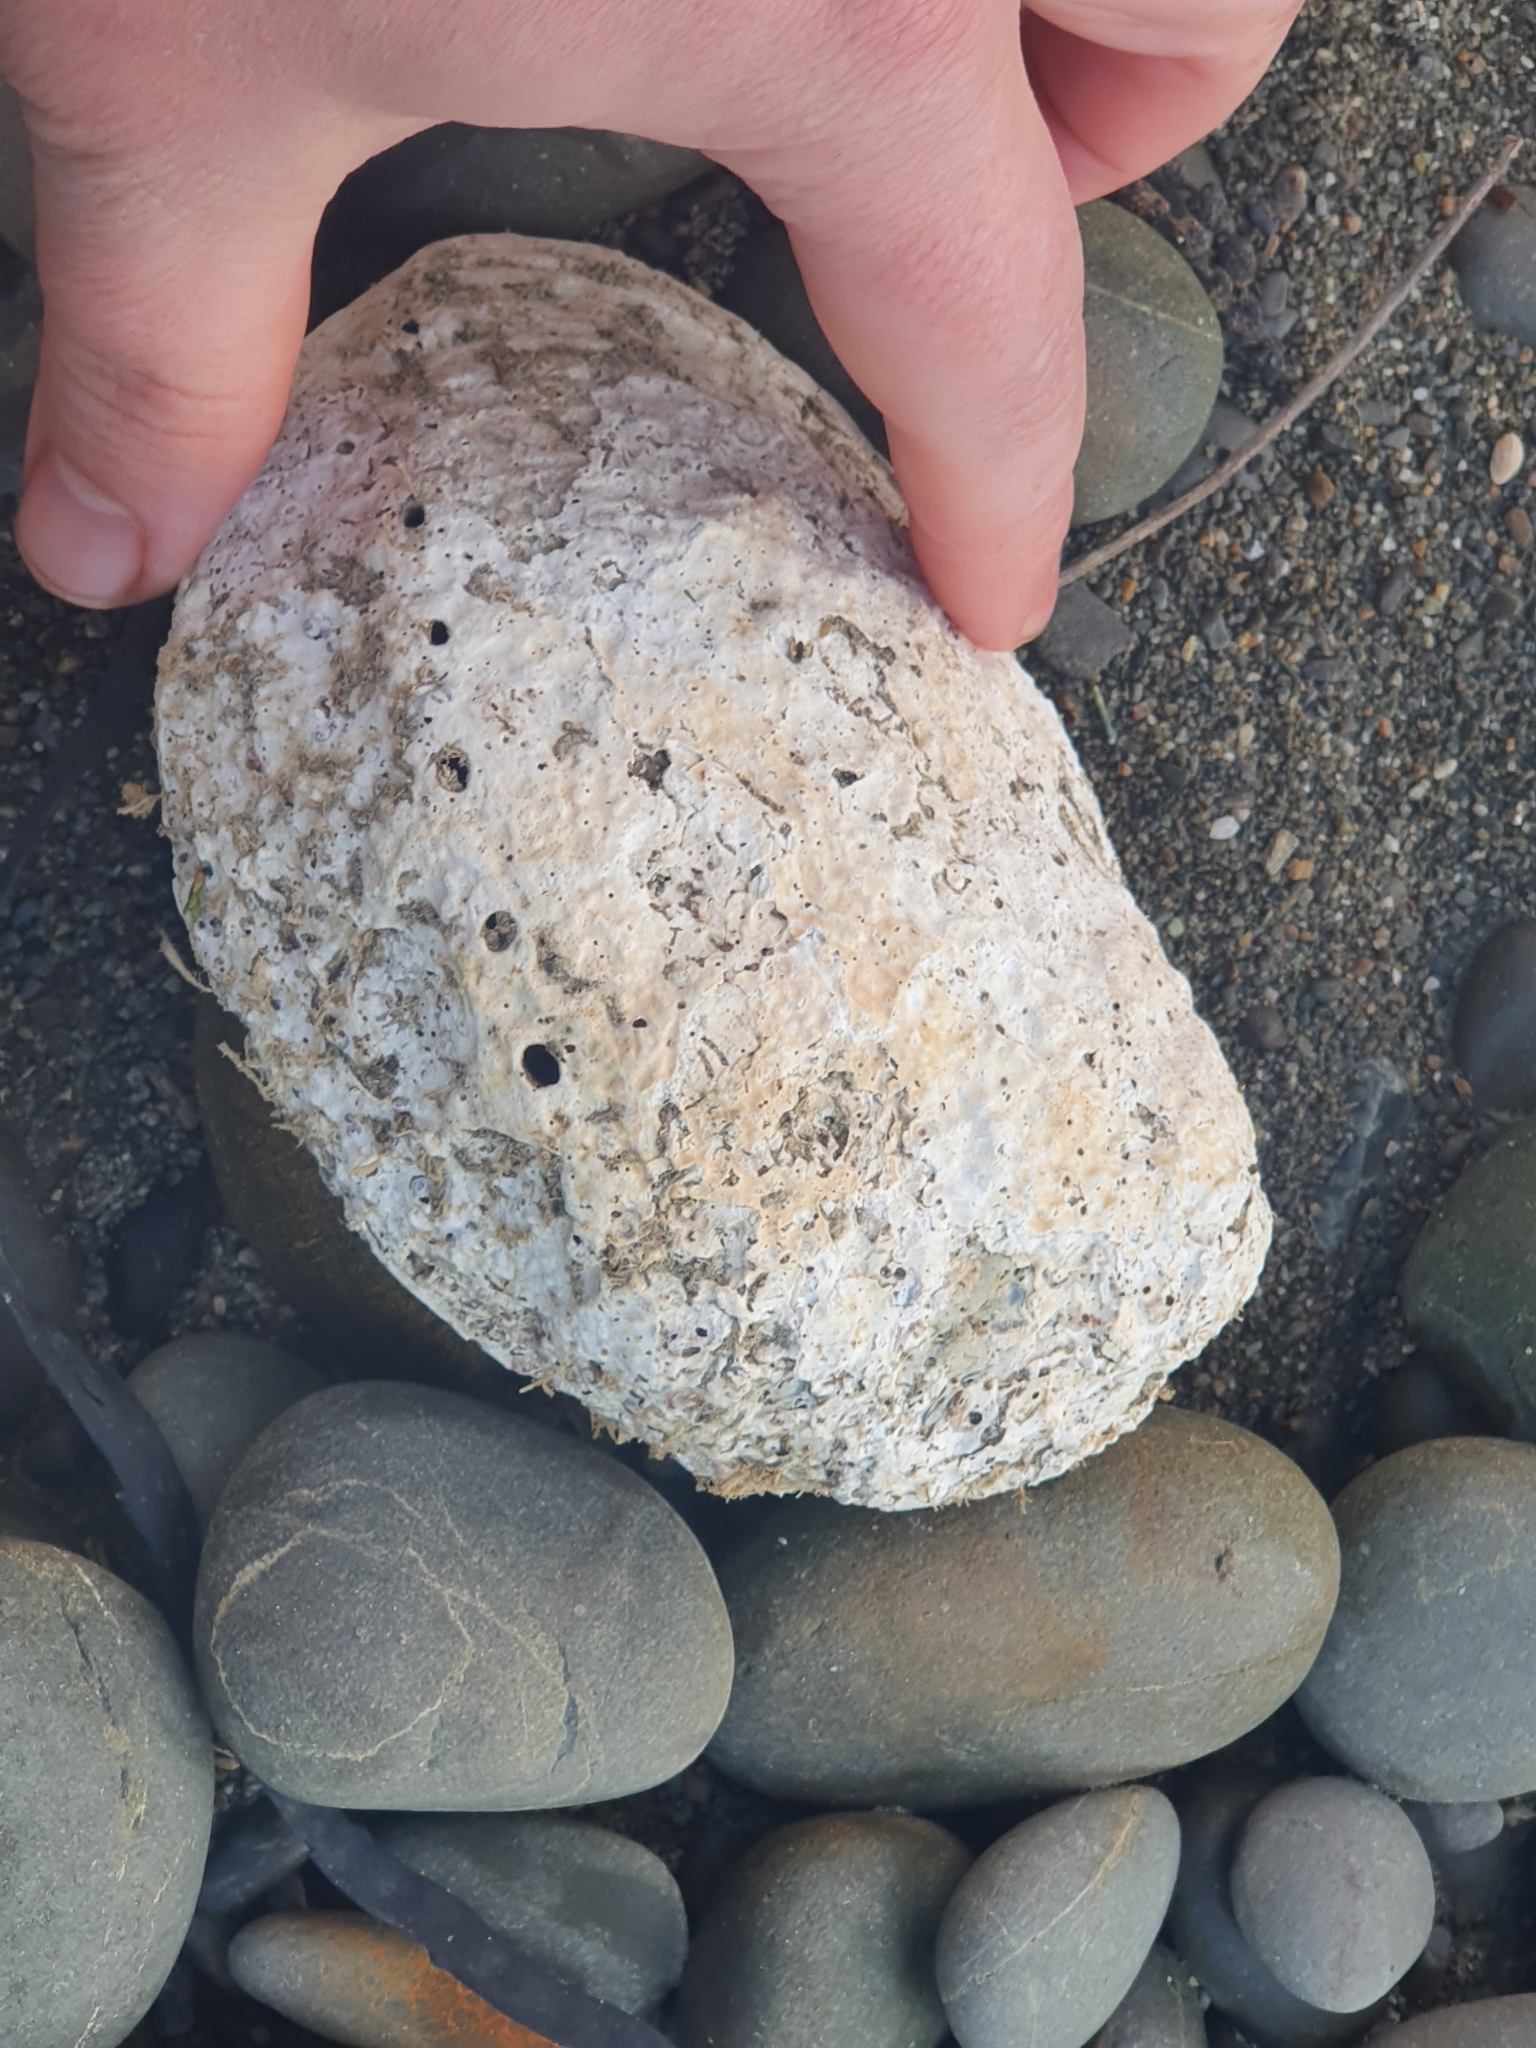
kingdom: Animalia
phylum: Mollusca
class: Gastropoda
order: Lepetellida
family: Haliotidae
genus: Haliotis
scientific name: Haliotis iris
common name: Abalone
